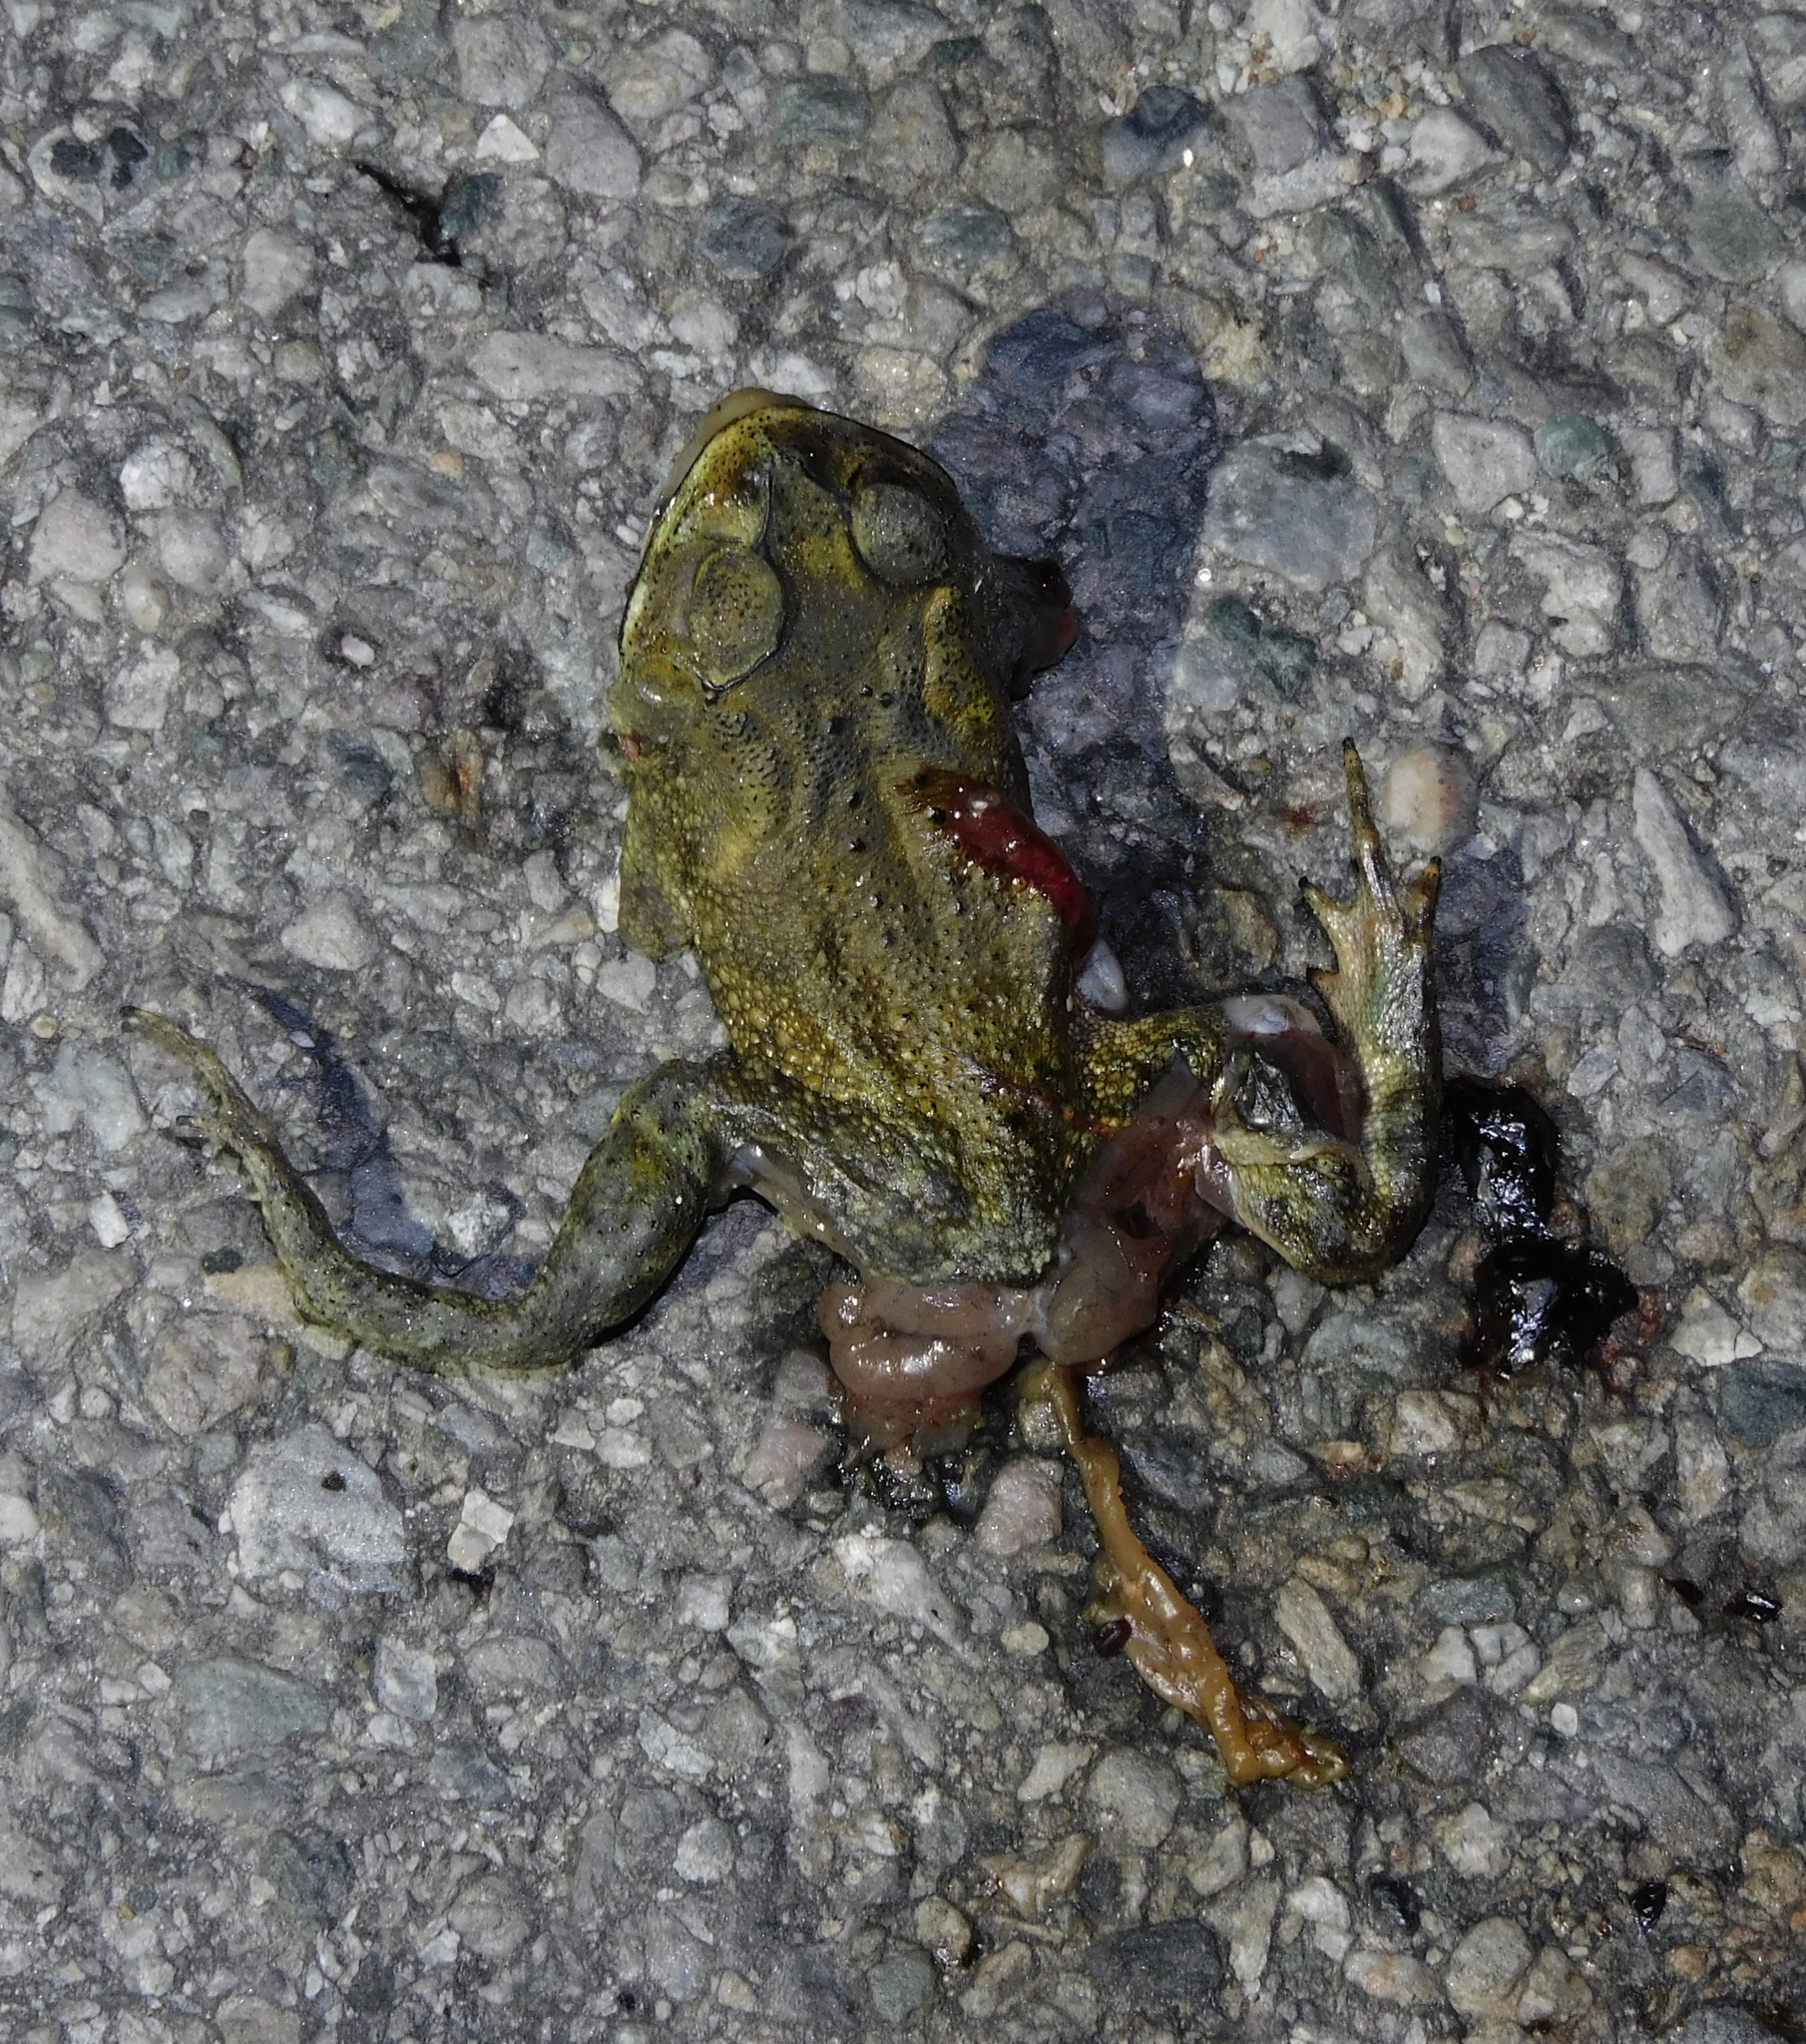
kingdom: Animalia
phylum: Chordata
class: Amphibia
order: Anura
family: Bufonidae
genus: Duttaphrynus
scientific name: Duttaphrynus melanostictus
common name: Common sunda toad
